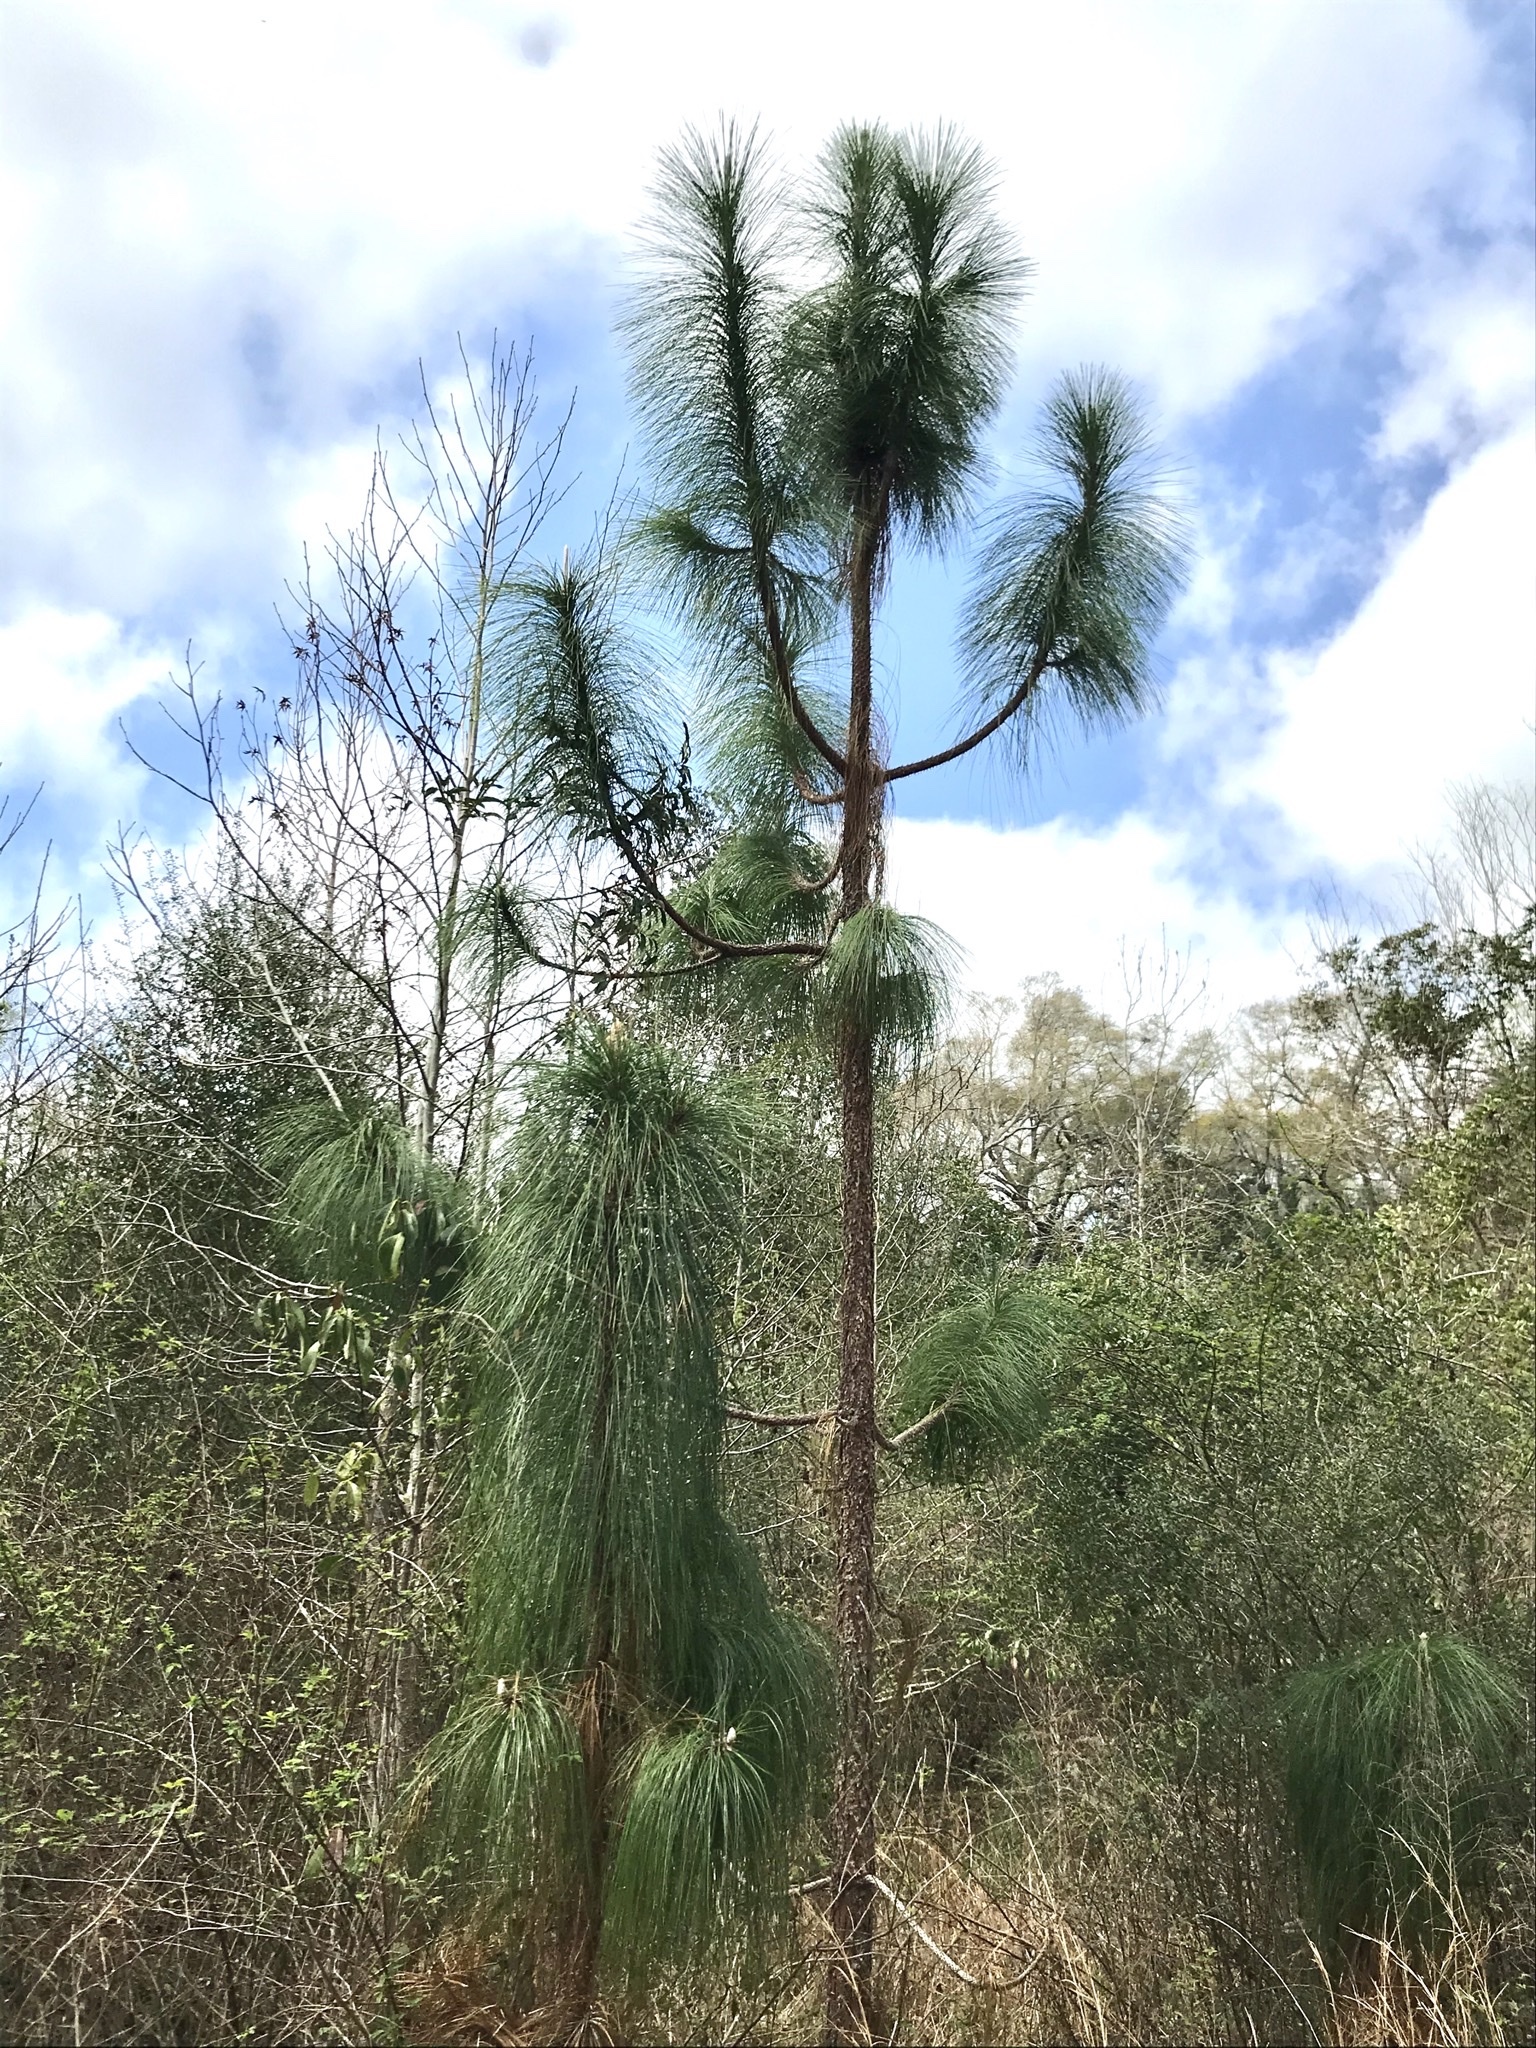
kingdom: Plantae
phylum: Tracheophyta
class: Pinopsida
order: Pinales
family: Pinaceae
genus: Pinus
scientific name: Pinus palustris
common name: Longleaf pine
